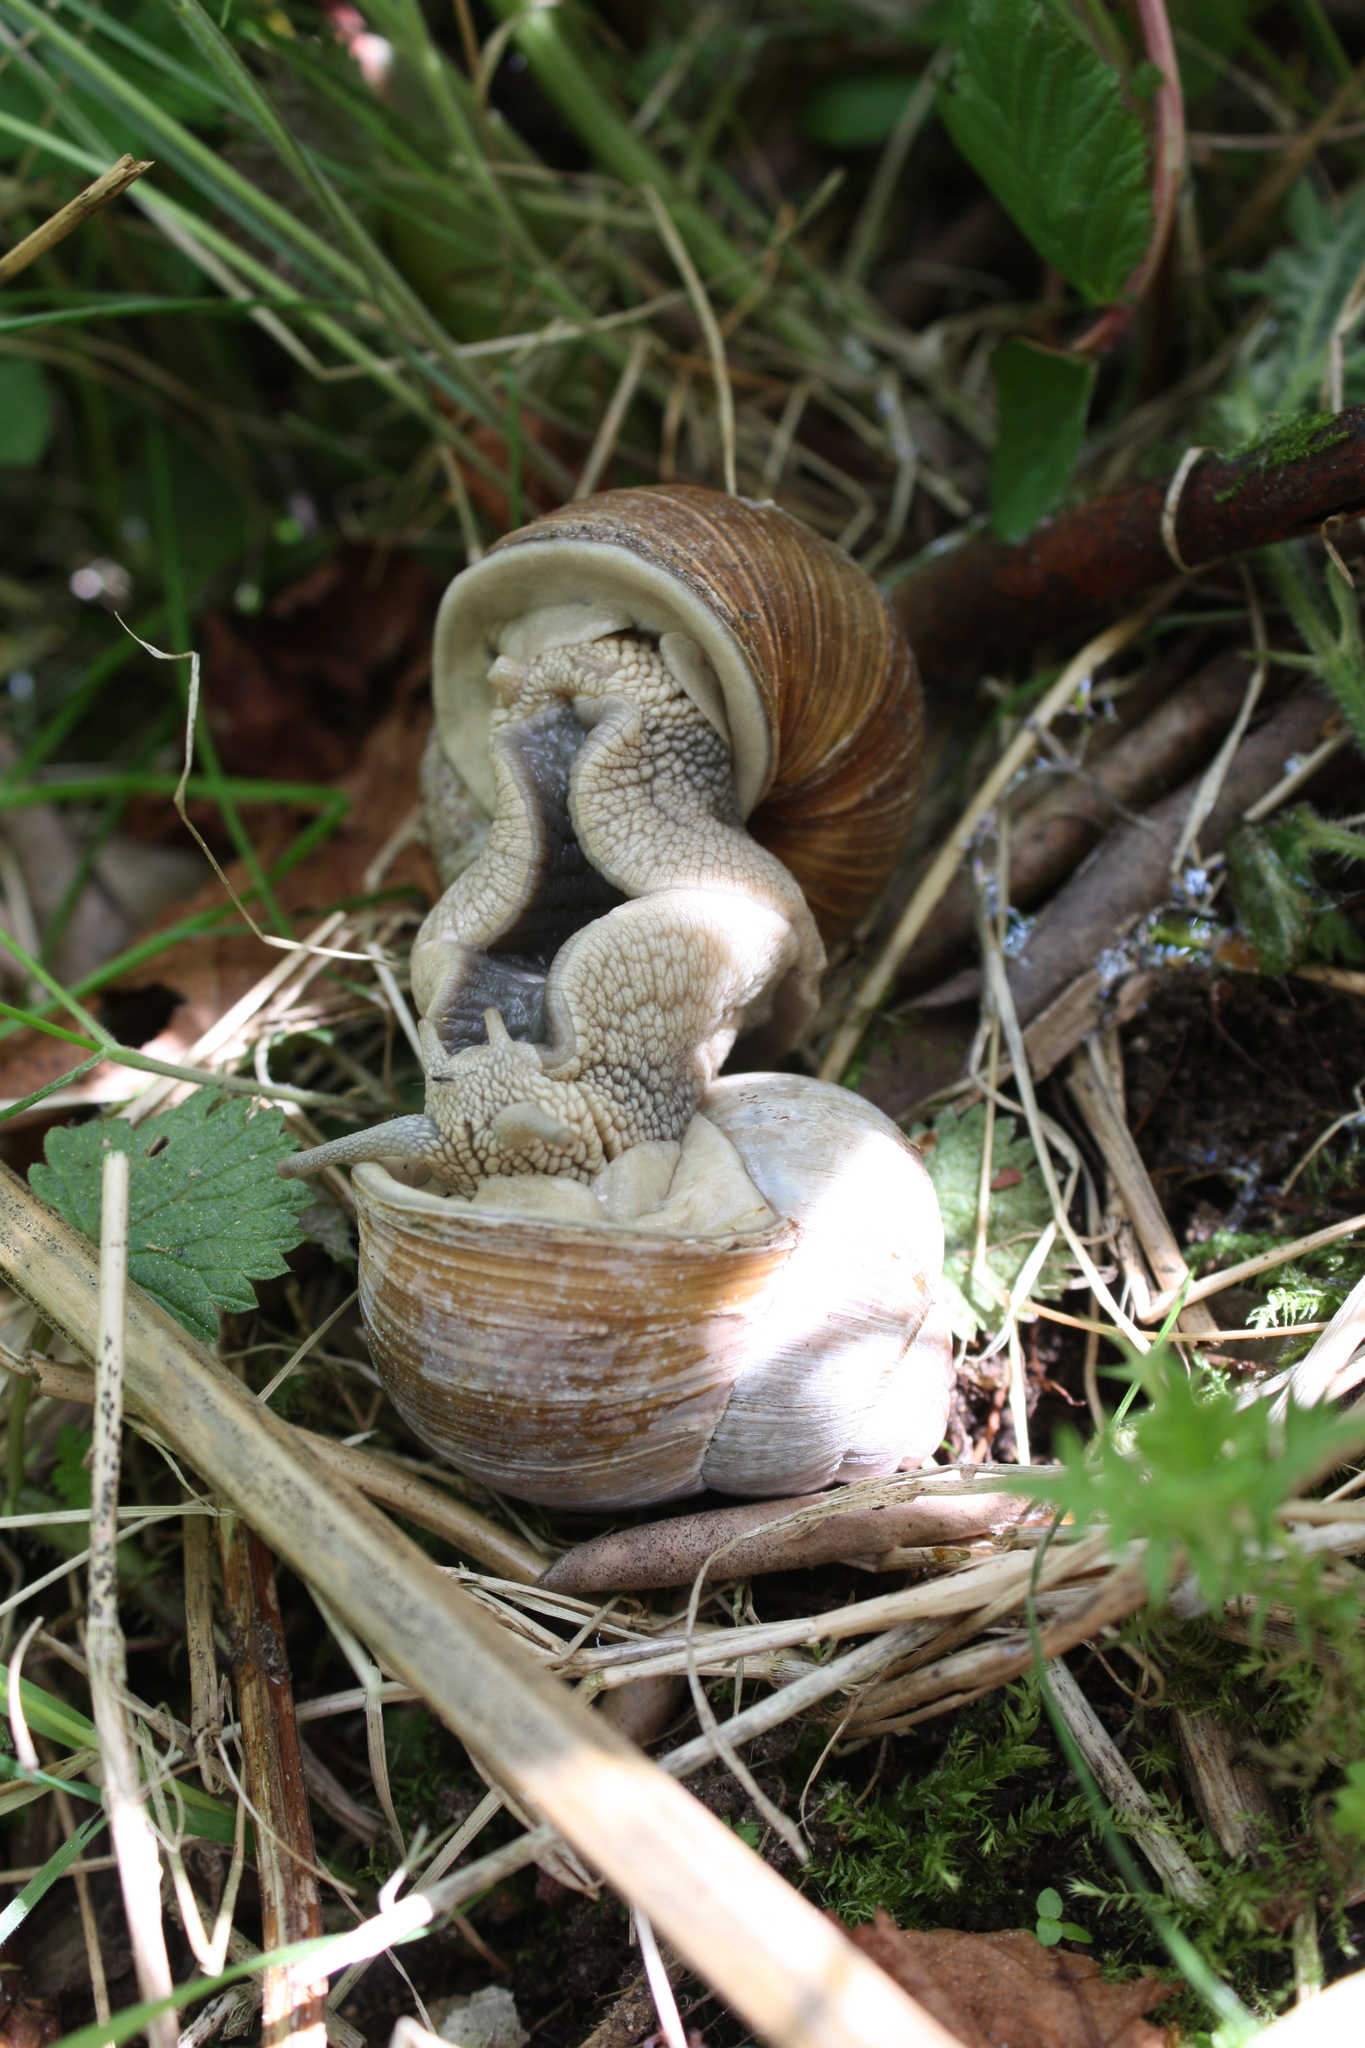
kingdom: Animalia
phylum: Mollusca
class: Gastropoda
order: Stylommatophora
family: Helicidae
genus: Helix
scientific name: Helix pomatia
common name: Roman snail
